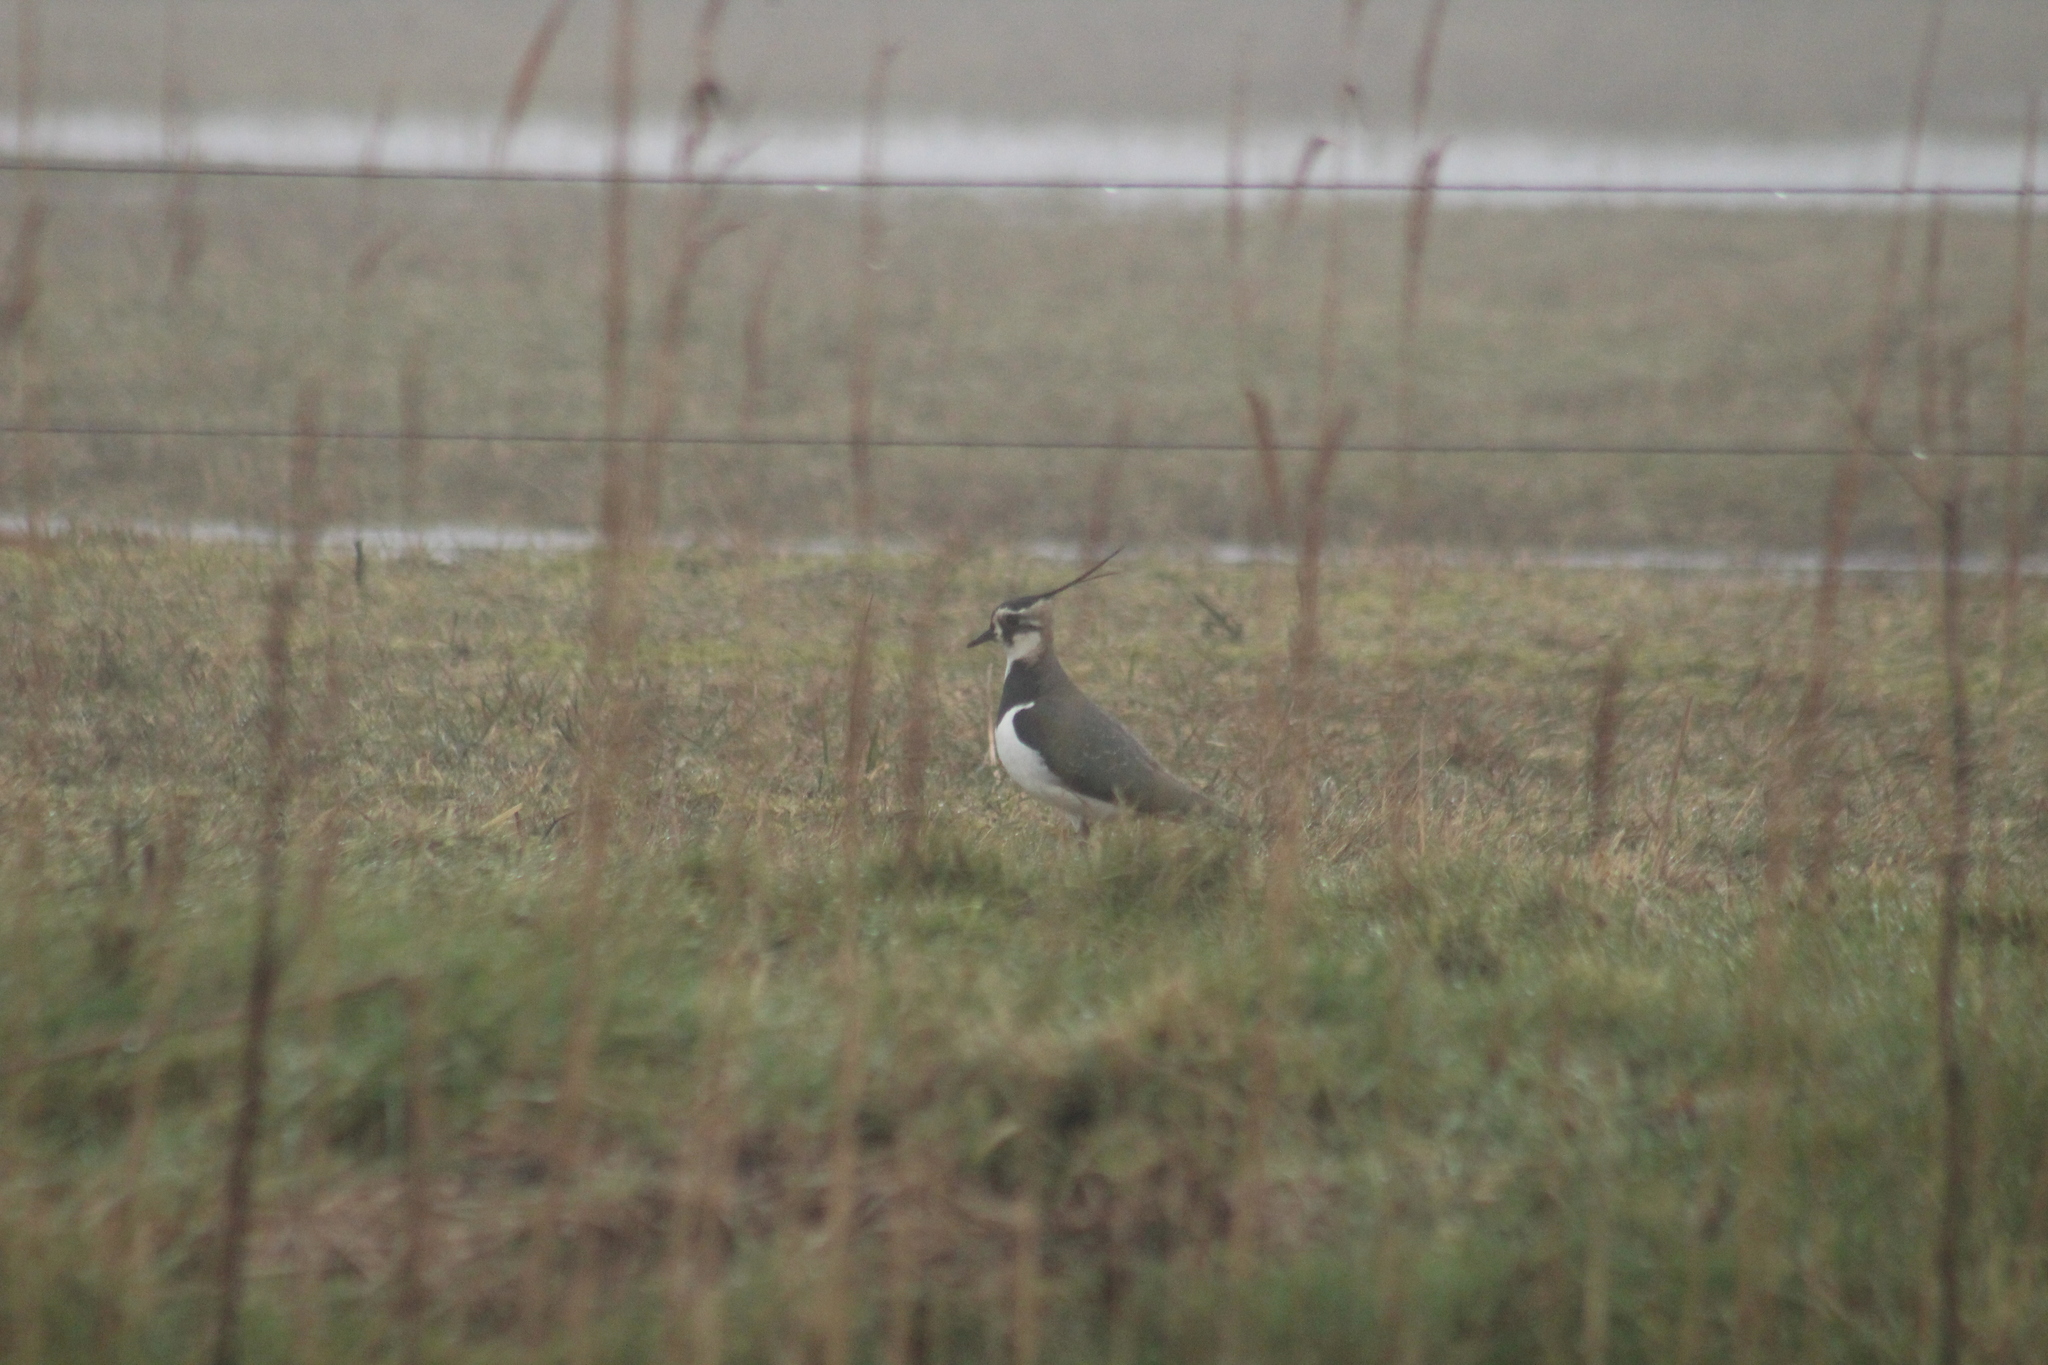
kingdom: Animalia
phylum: Chordata
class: Aves
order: Charadriiformes
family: Charadriidae
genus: Vanellus
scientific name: Vanellus vanellus
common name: Northern lapwing
